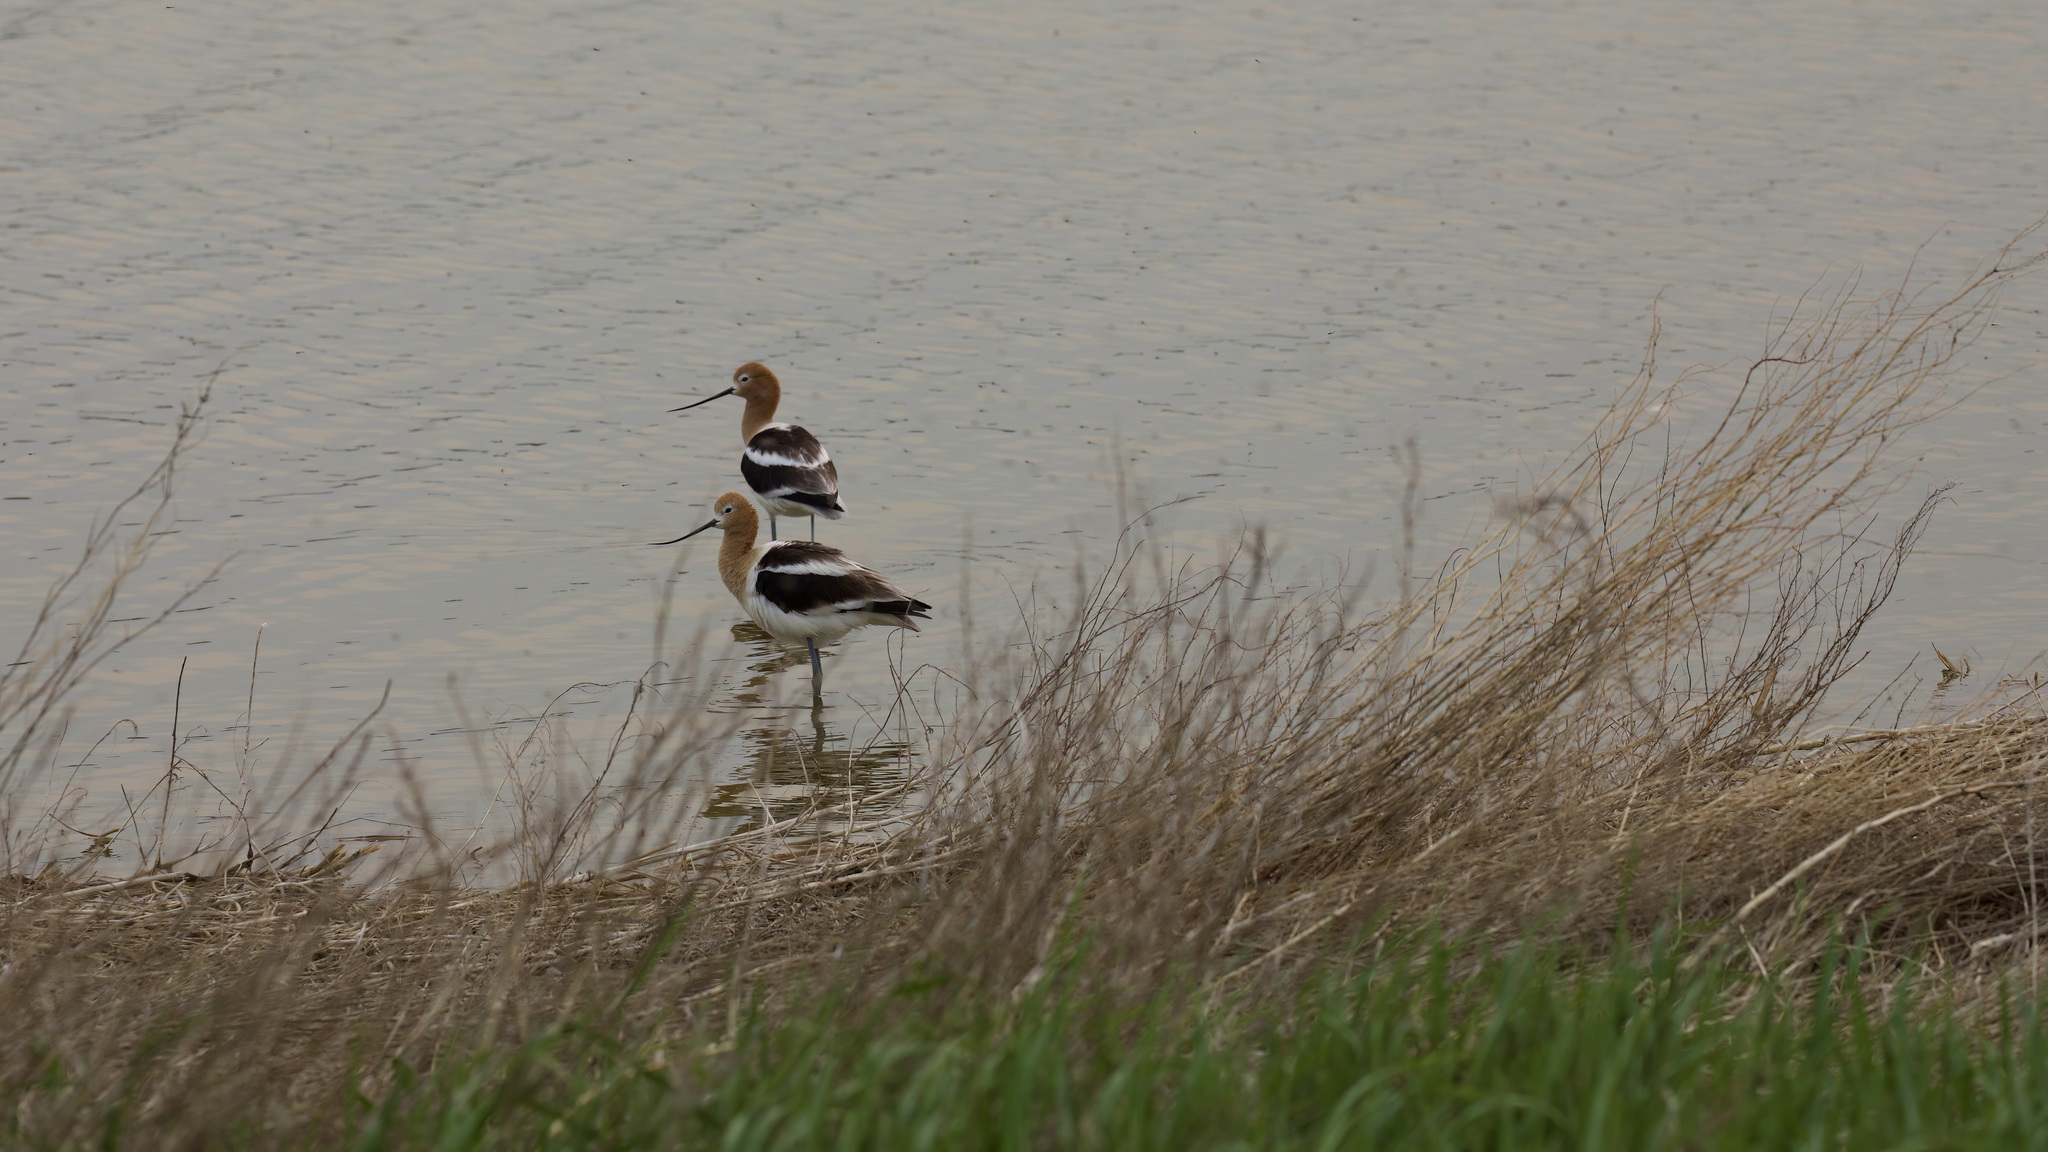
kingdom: Animalia
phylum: Chordata
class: Aves
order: Charadriiformes
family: Recurvirostridae
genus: Recurvirostra
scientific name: Recurvirostra americana
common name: American avocet
